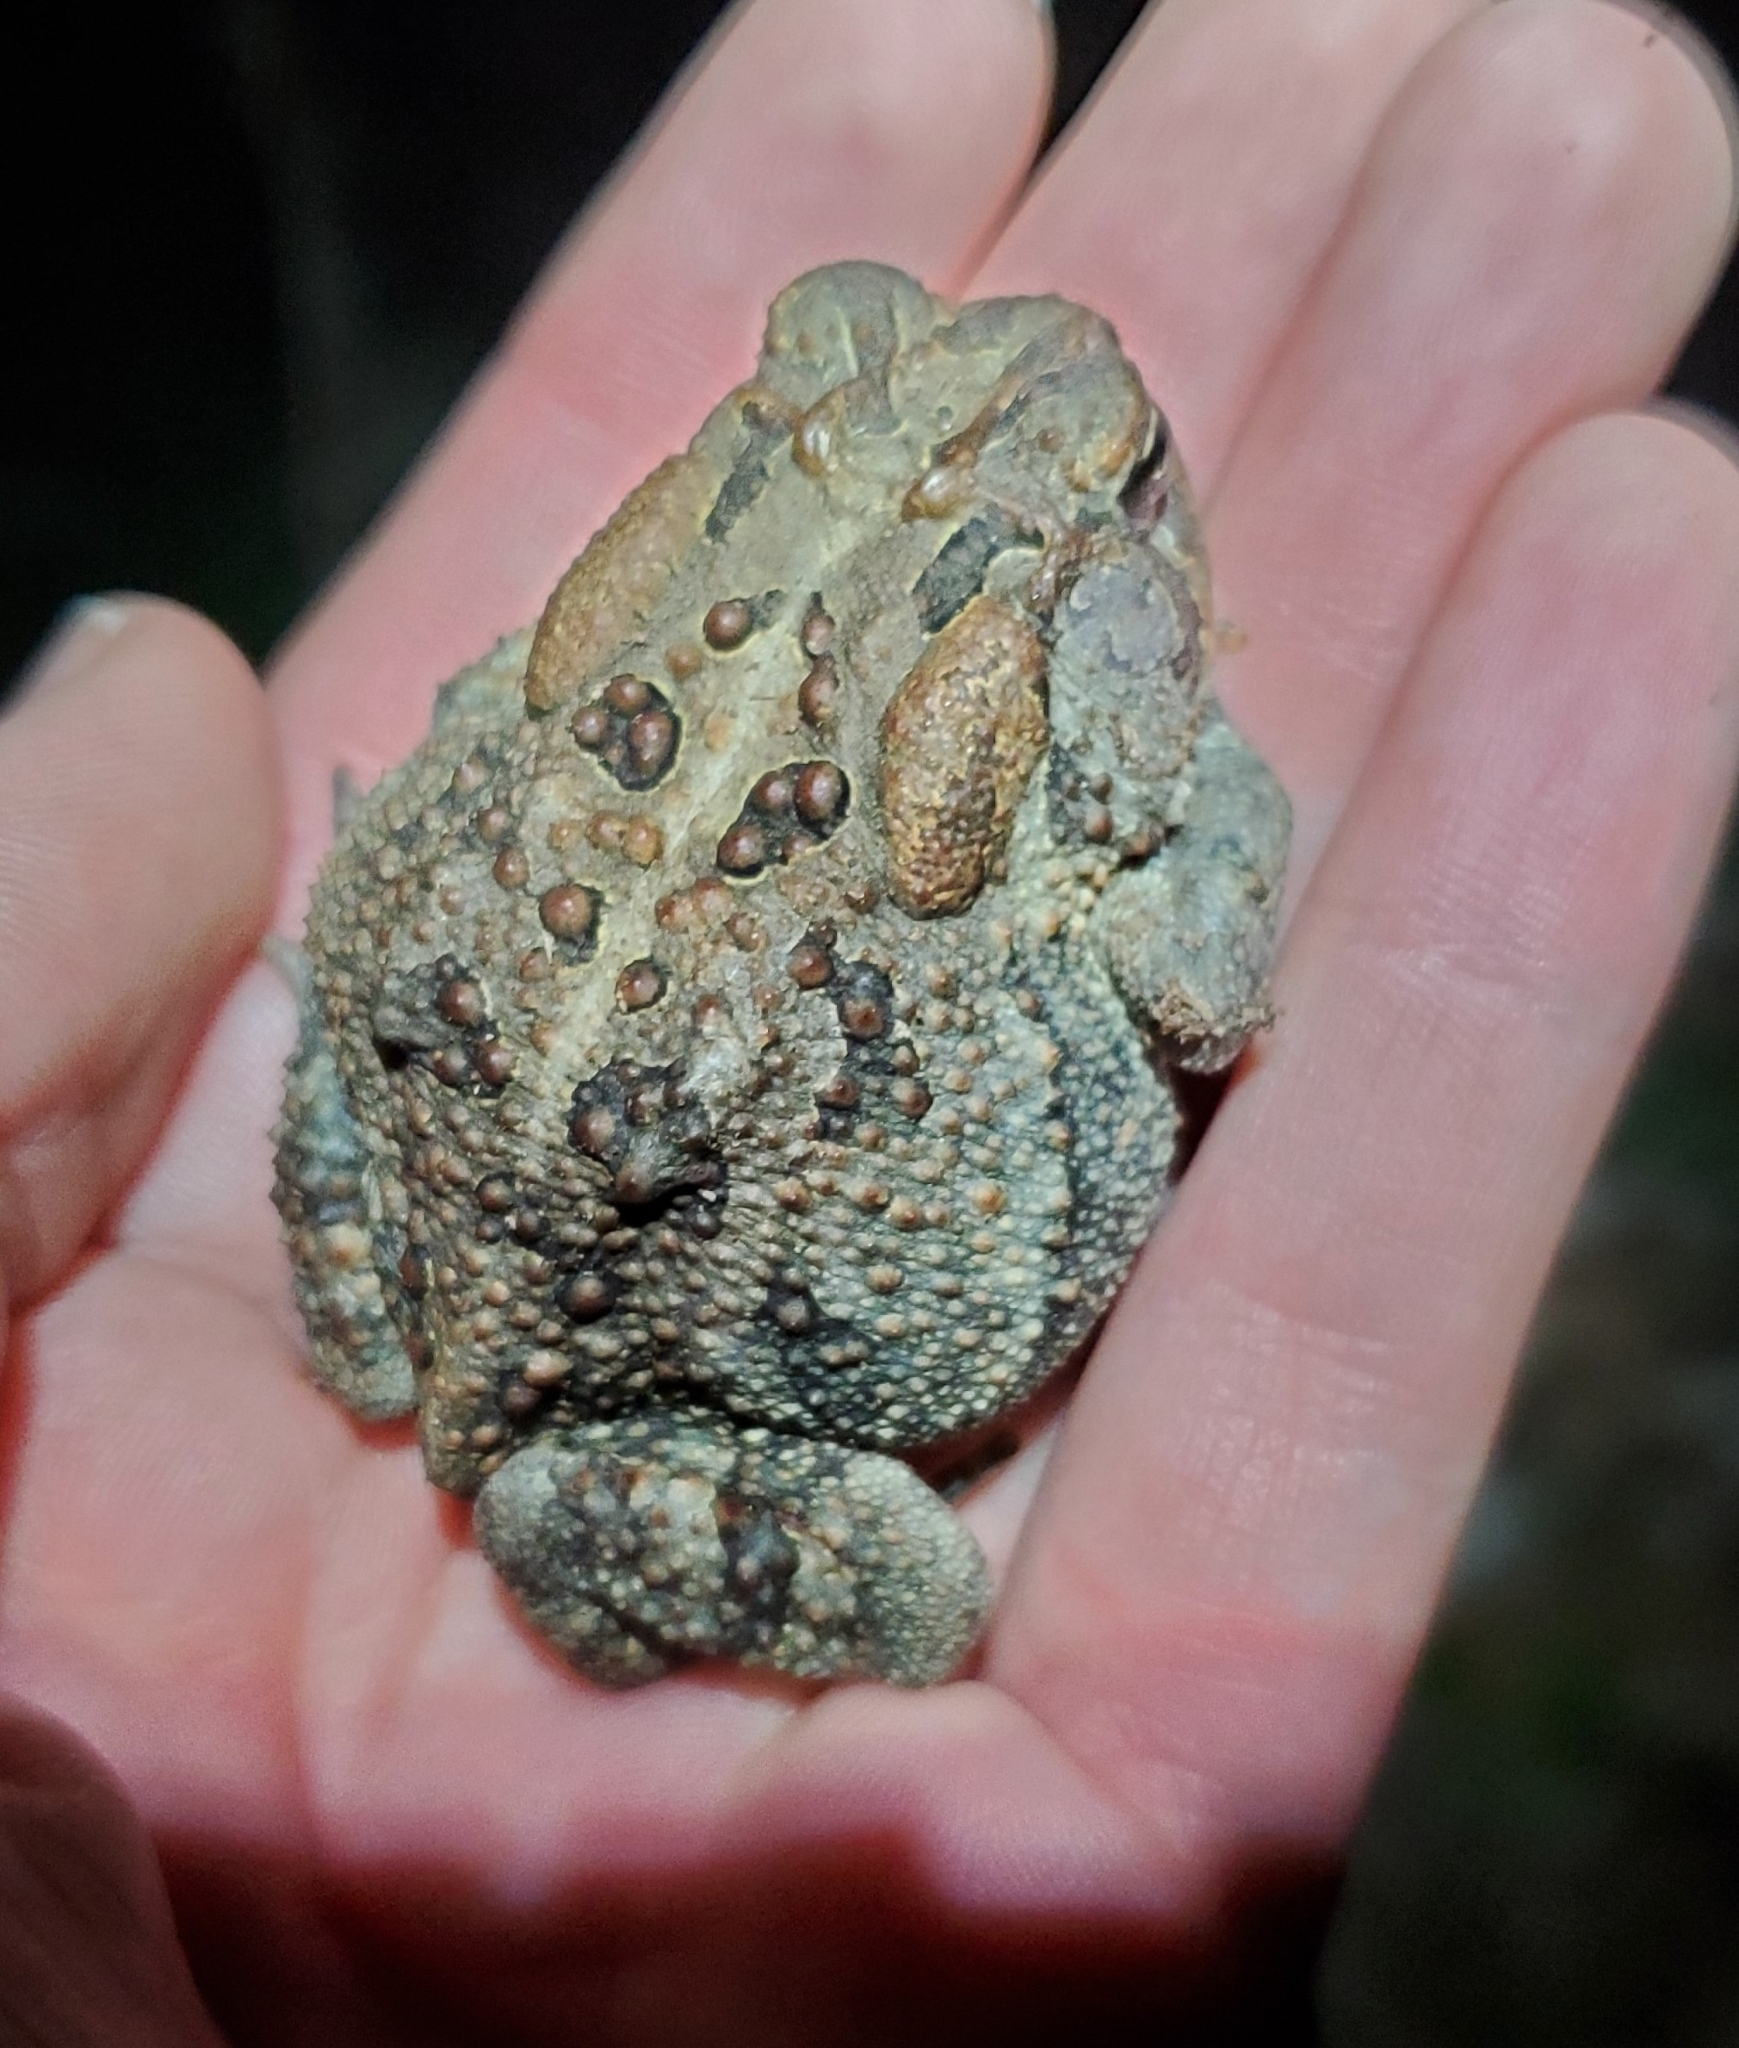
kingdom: Animalia
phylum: Chordata
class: Amphibia
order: Anura
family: Bufonidae
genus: Anaxyrus
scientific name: Anaxyrus terrestris
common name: Southern toad
